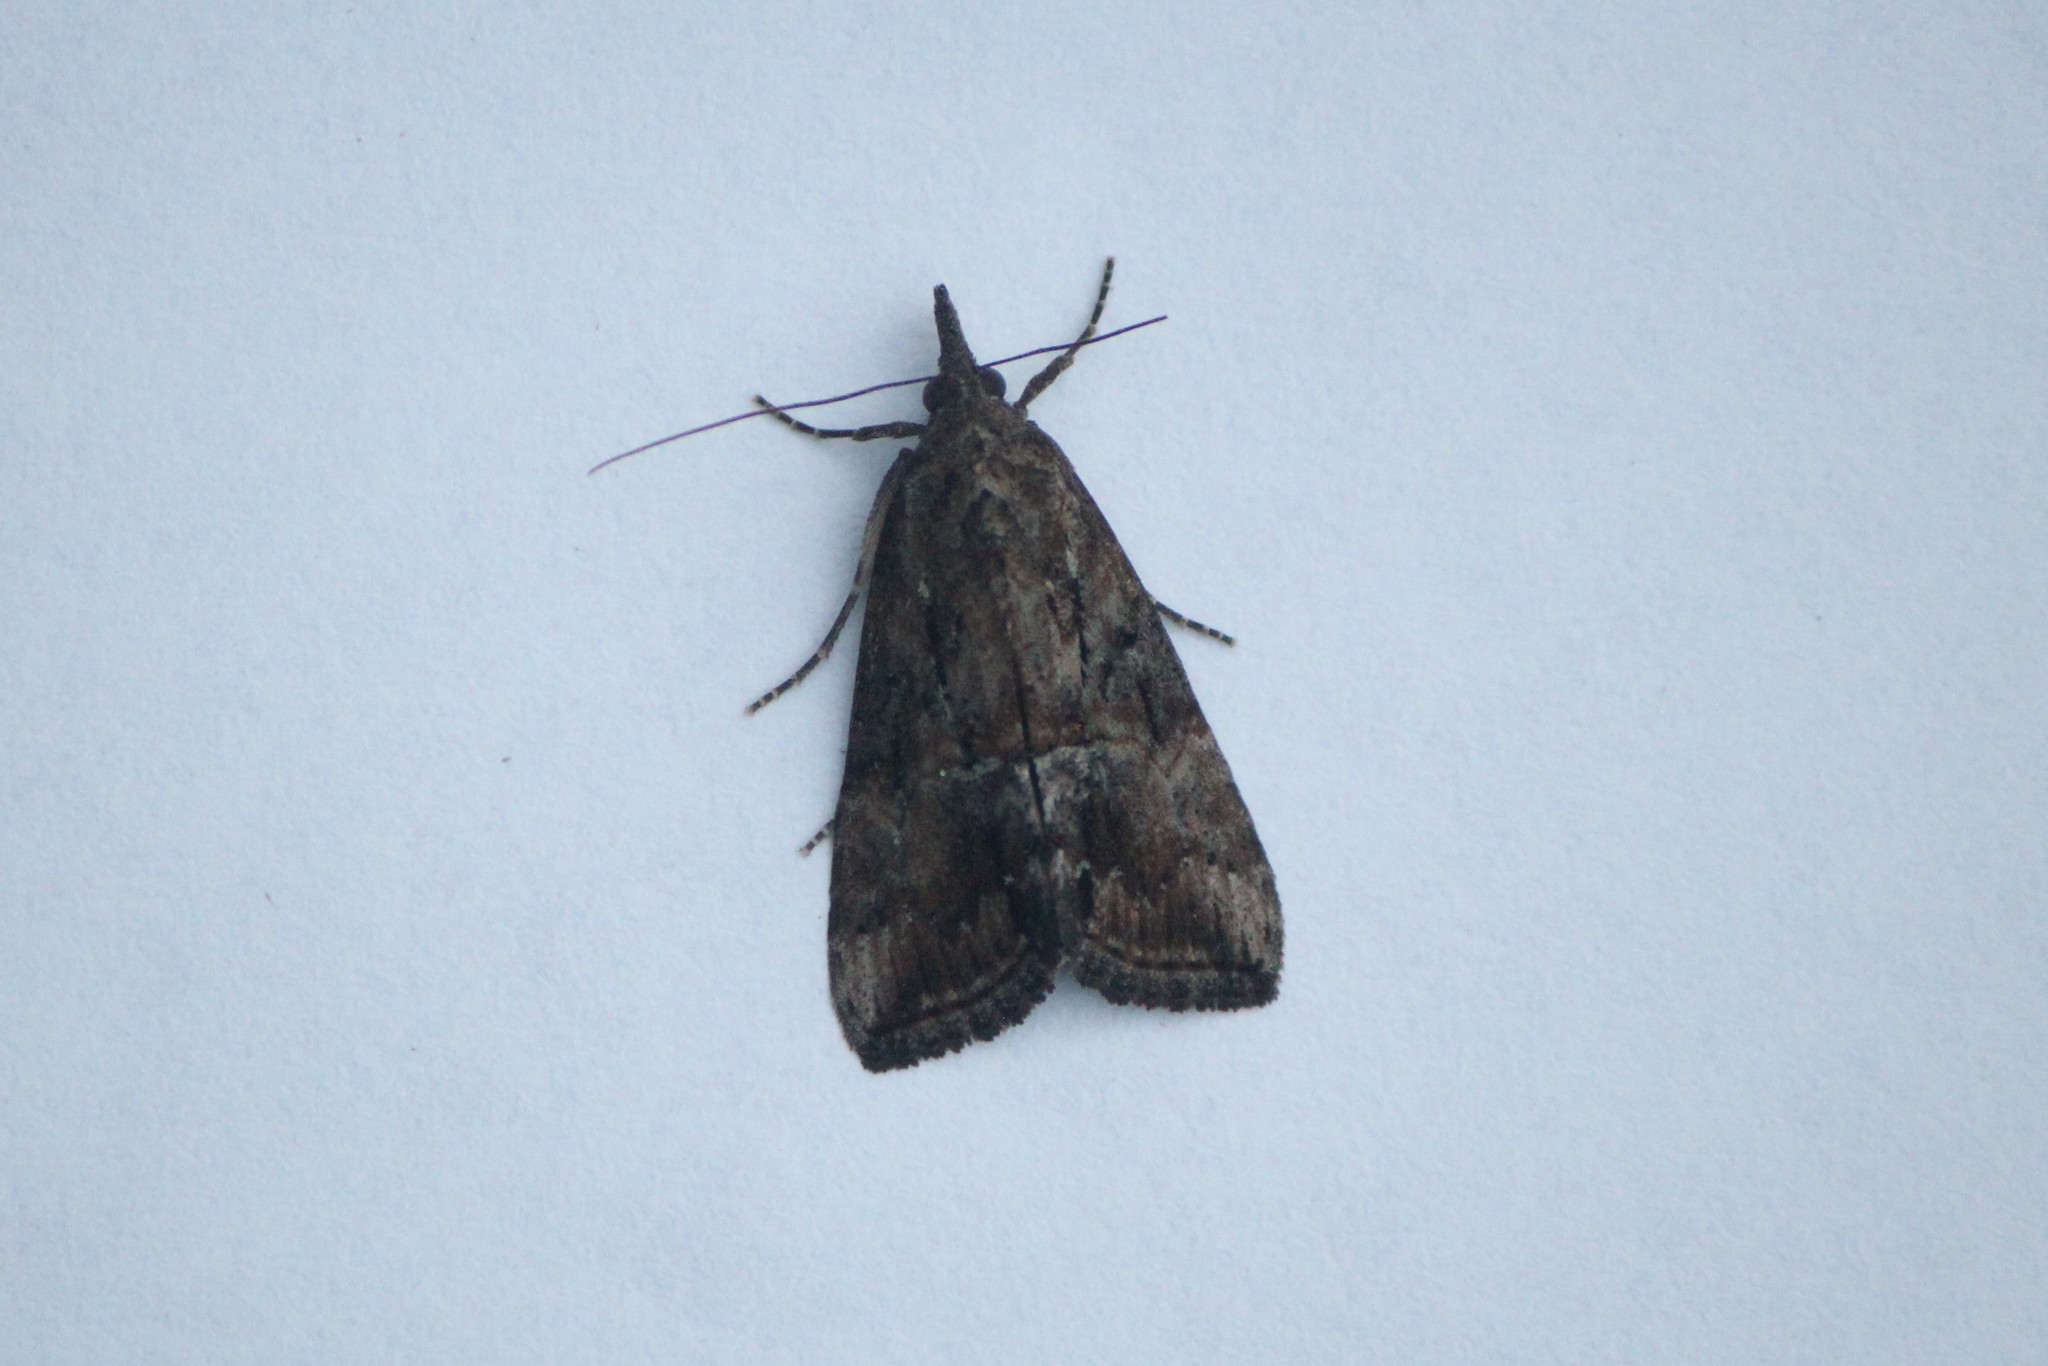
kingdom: Animalia
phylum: Arthropoda
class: Insecta
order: Lepidoptera
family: Erebidae
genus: Hypena
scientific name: Hypena scabra
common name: Green cloverworm
